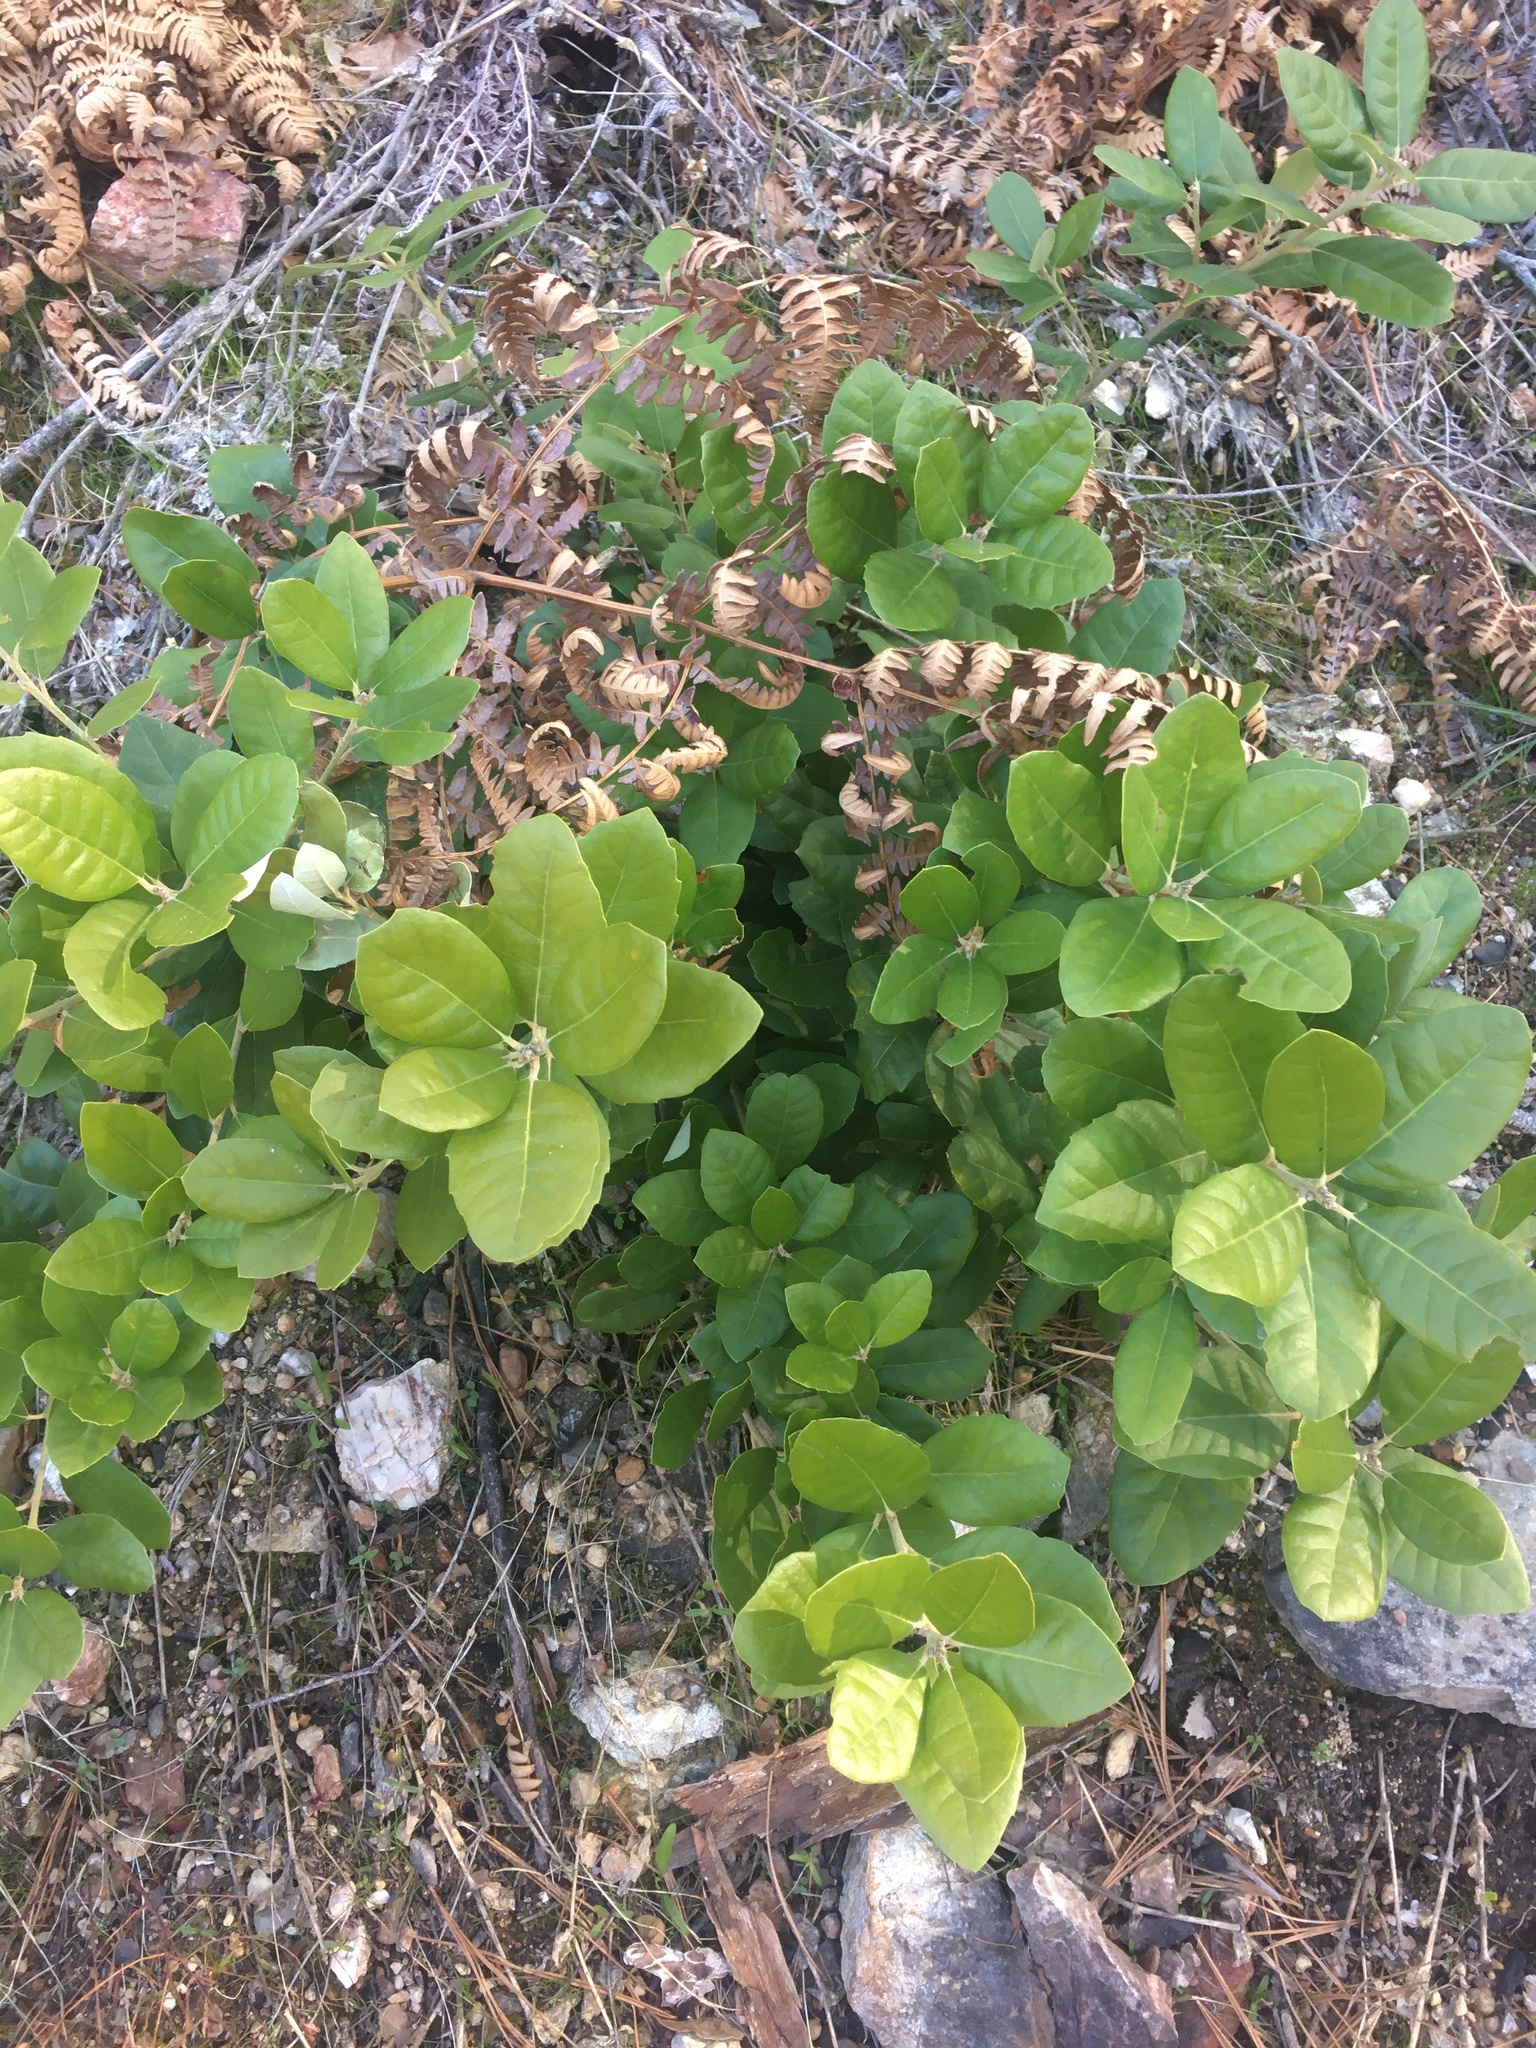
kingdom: Plantae
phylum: Tracheophyta
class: Magnoliopsida
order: Fagales
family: Fagaceae
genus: Notholithocarpus
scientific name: Notholithocarpus densiflorus
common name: Tan bark oak
